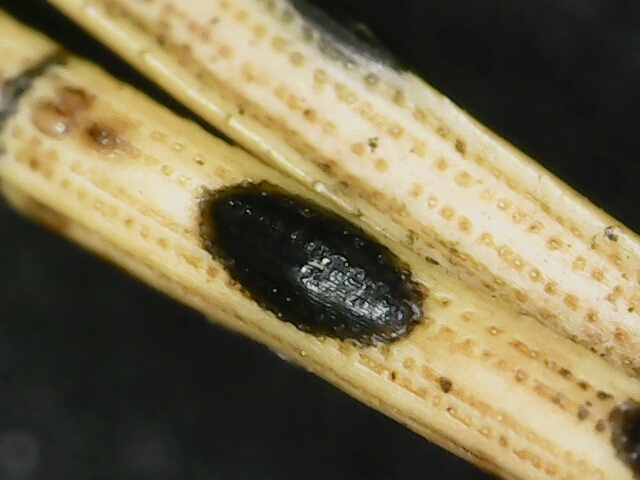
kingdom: Fungi
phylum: Ascomycota
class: Leotiomycetes
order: Rhytismatales
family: Rhytismataceae
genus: Lophodermium
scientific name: Lophodermium pinastri
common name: Pine needle split
